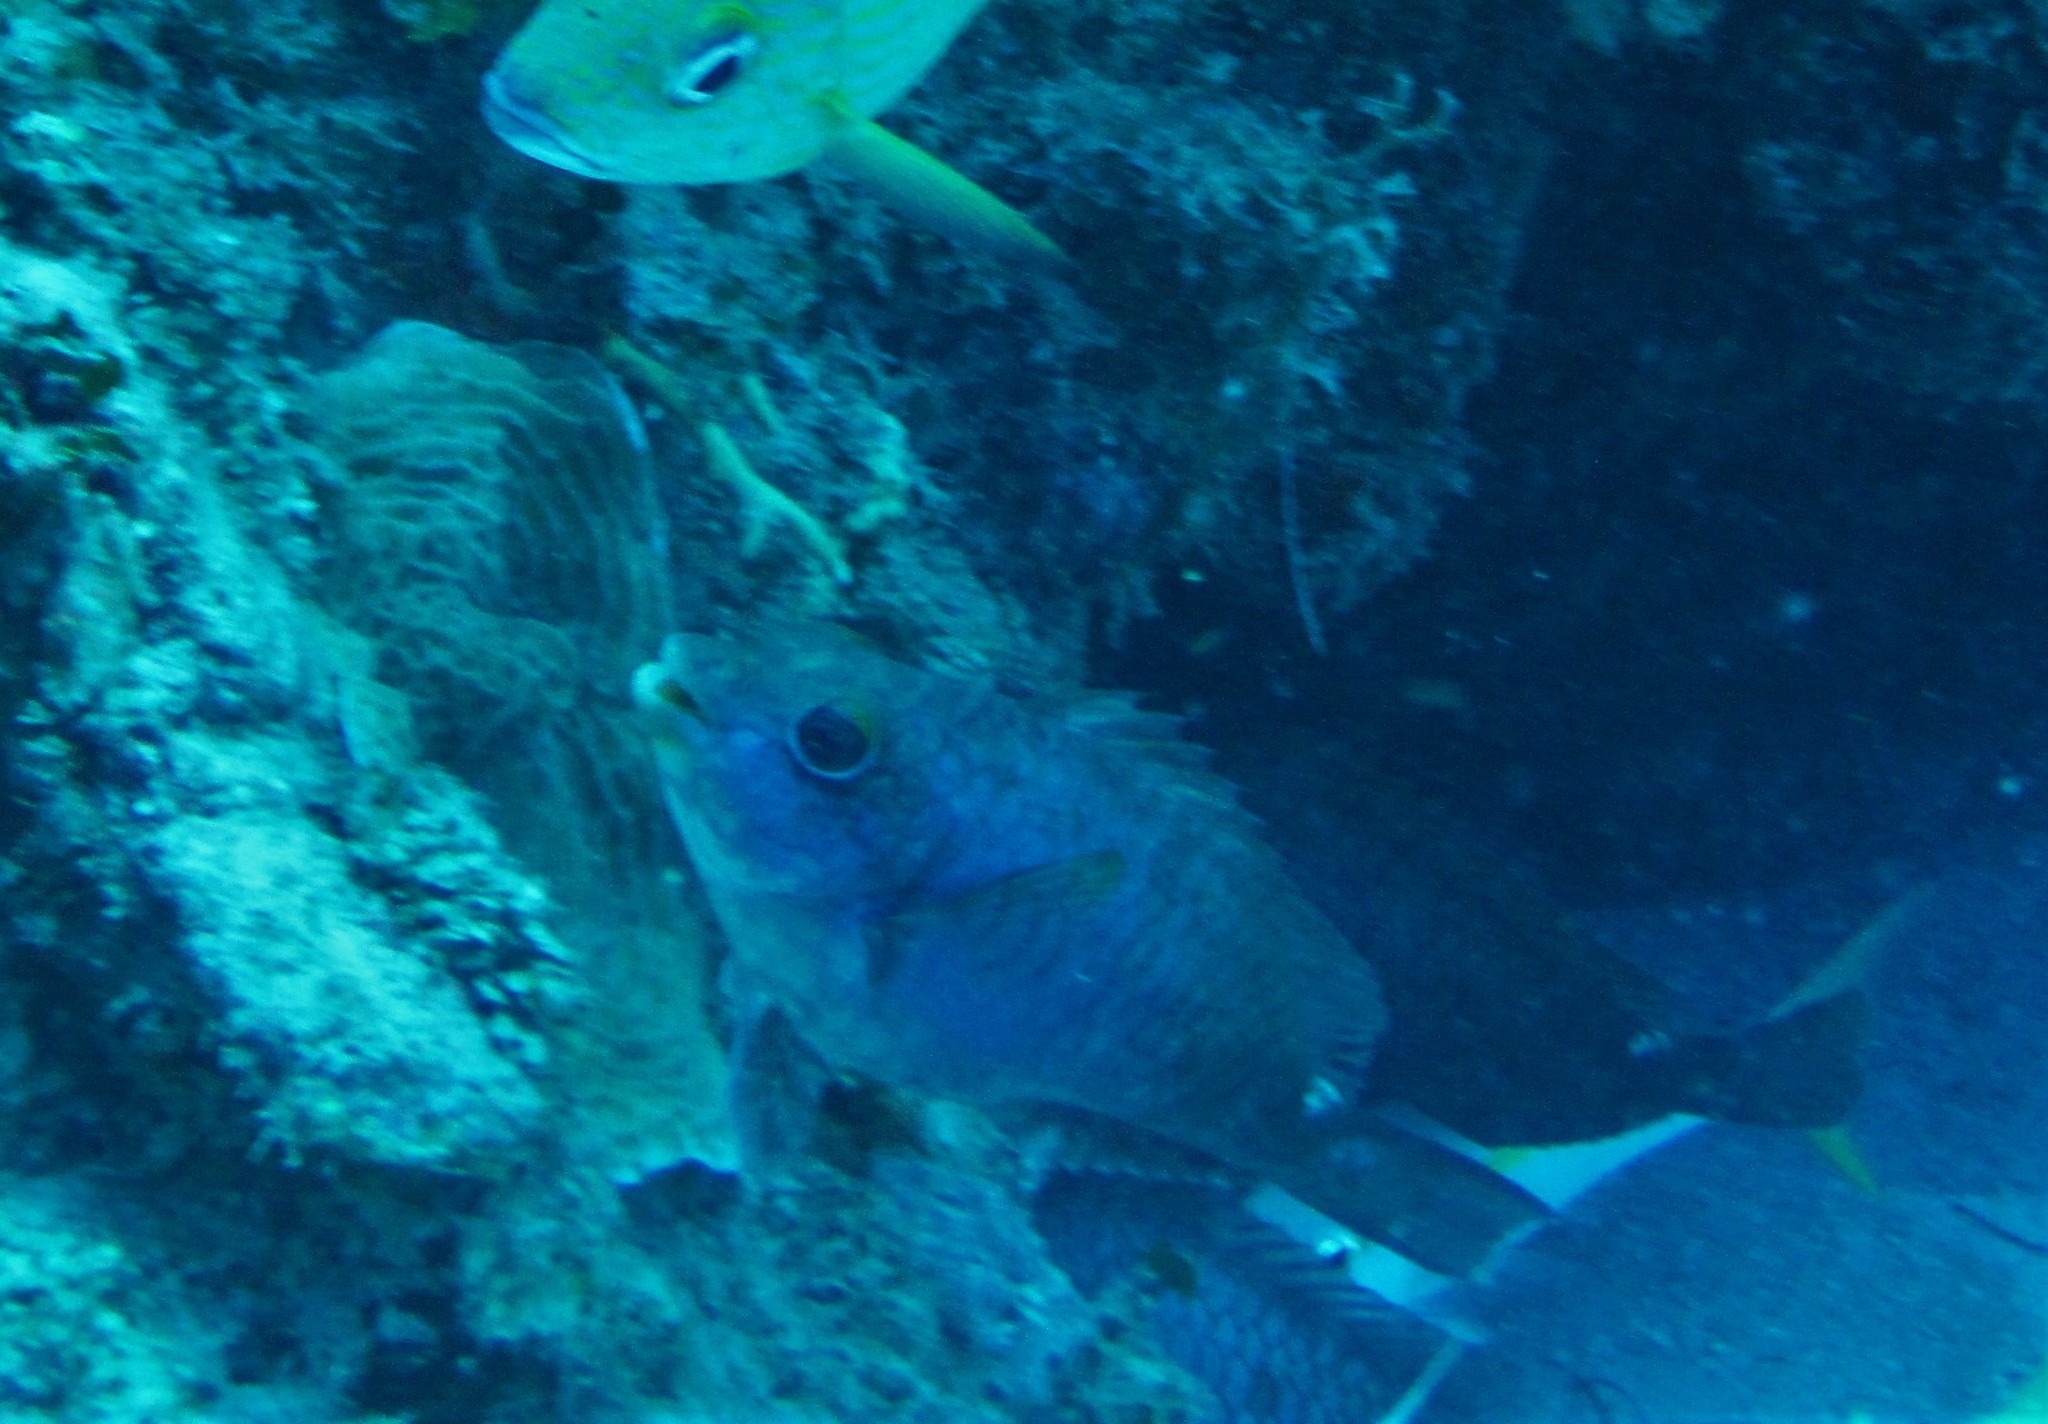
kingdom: Animalia
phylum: Chordata
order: Perciformes
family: Scaridae
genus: Sparisoma
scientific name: Sparisoma aurofrenatum
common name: Redband parrotfish
